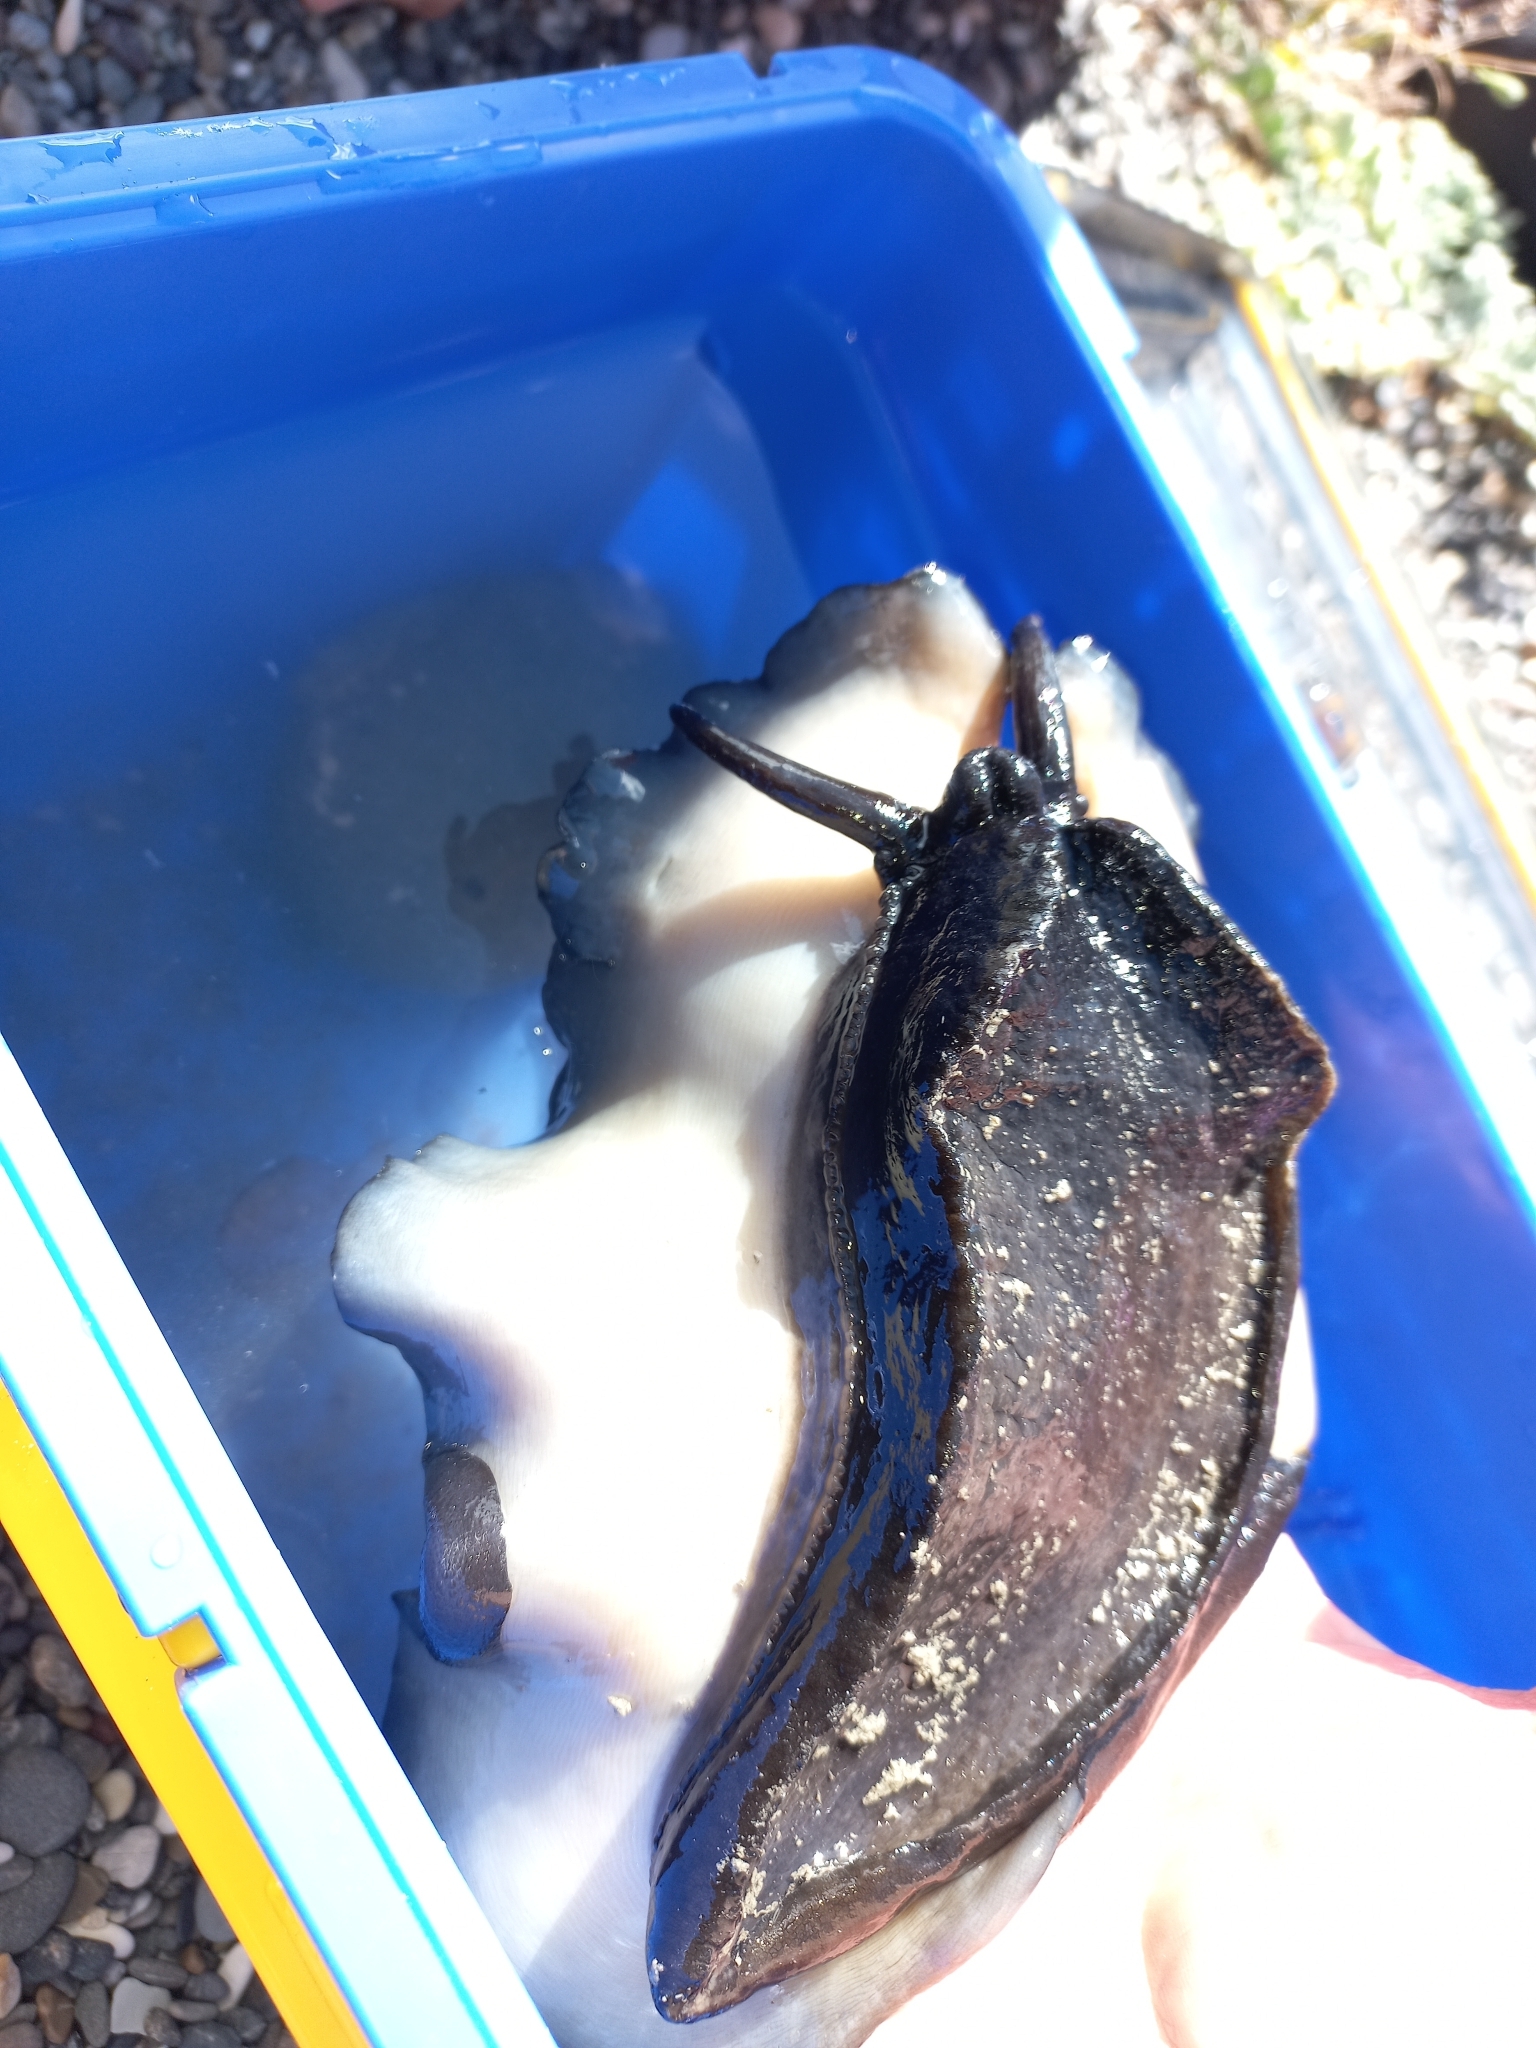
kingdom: Animalia
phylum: Mollusca
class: Gastropoda
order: Lepetellida
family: Fissurellidae
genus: Scutus
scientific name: Scutus breviculus
